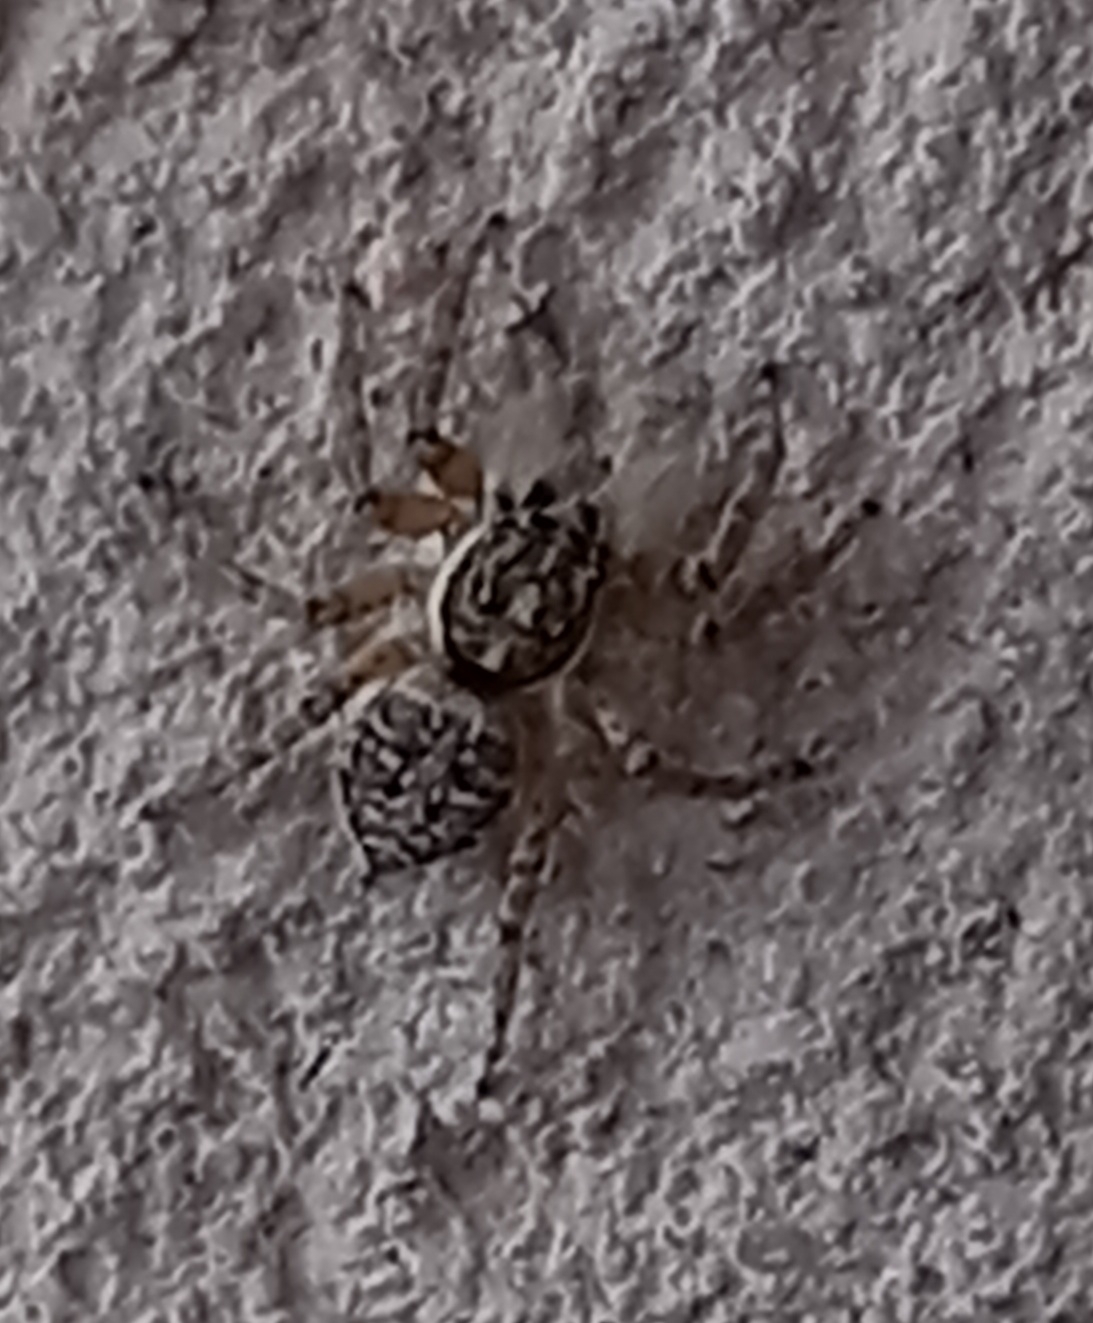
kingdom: Animalia
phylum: Arthropoda
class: Arachnida
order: Araneae
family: Salticidae
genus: Menemerus
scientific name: Menemerus semilimbatus
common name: Jumping spider
